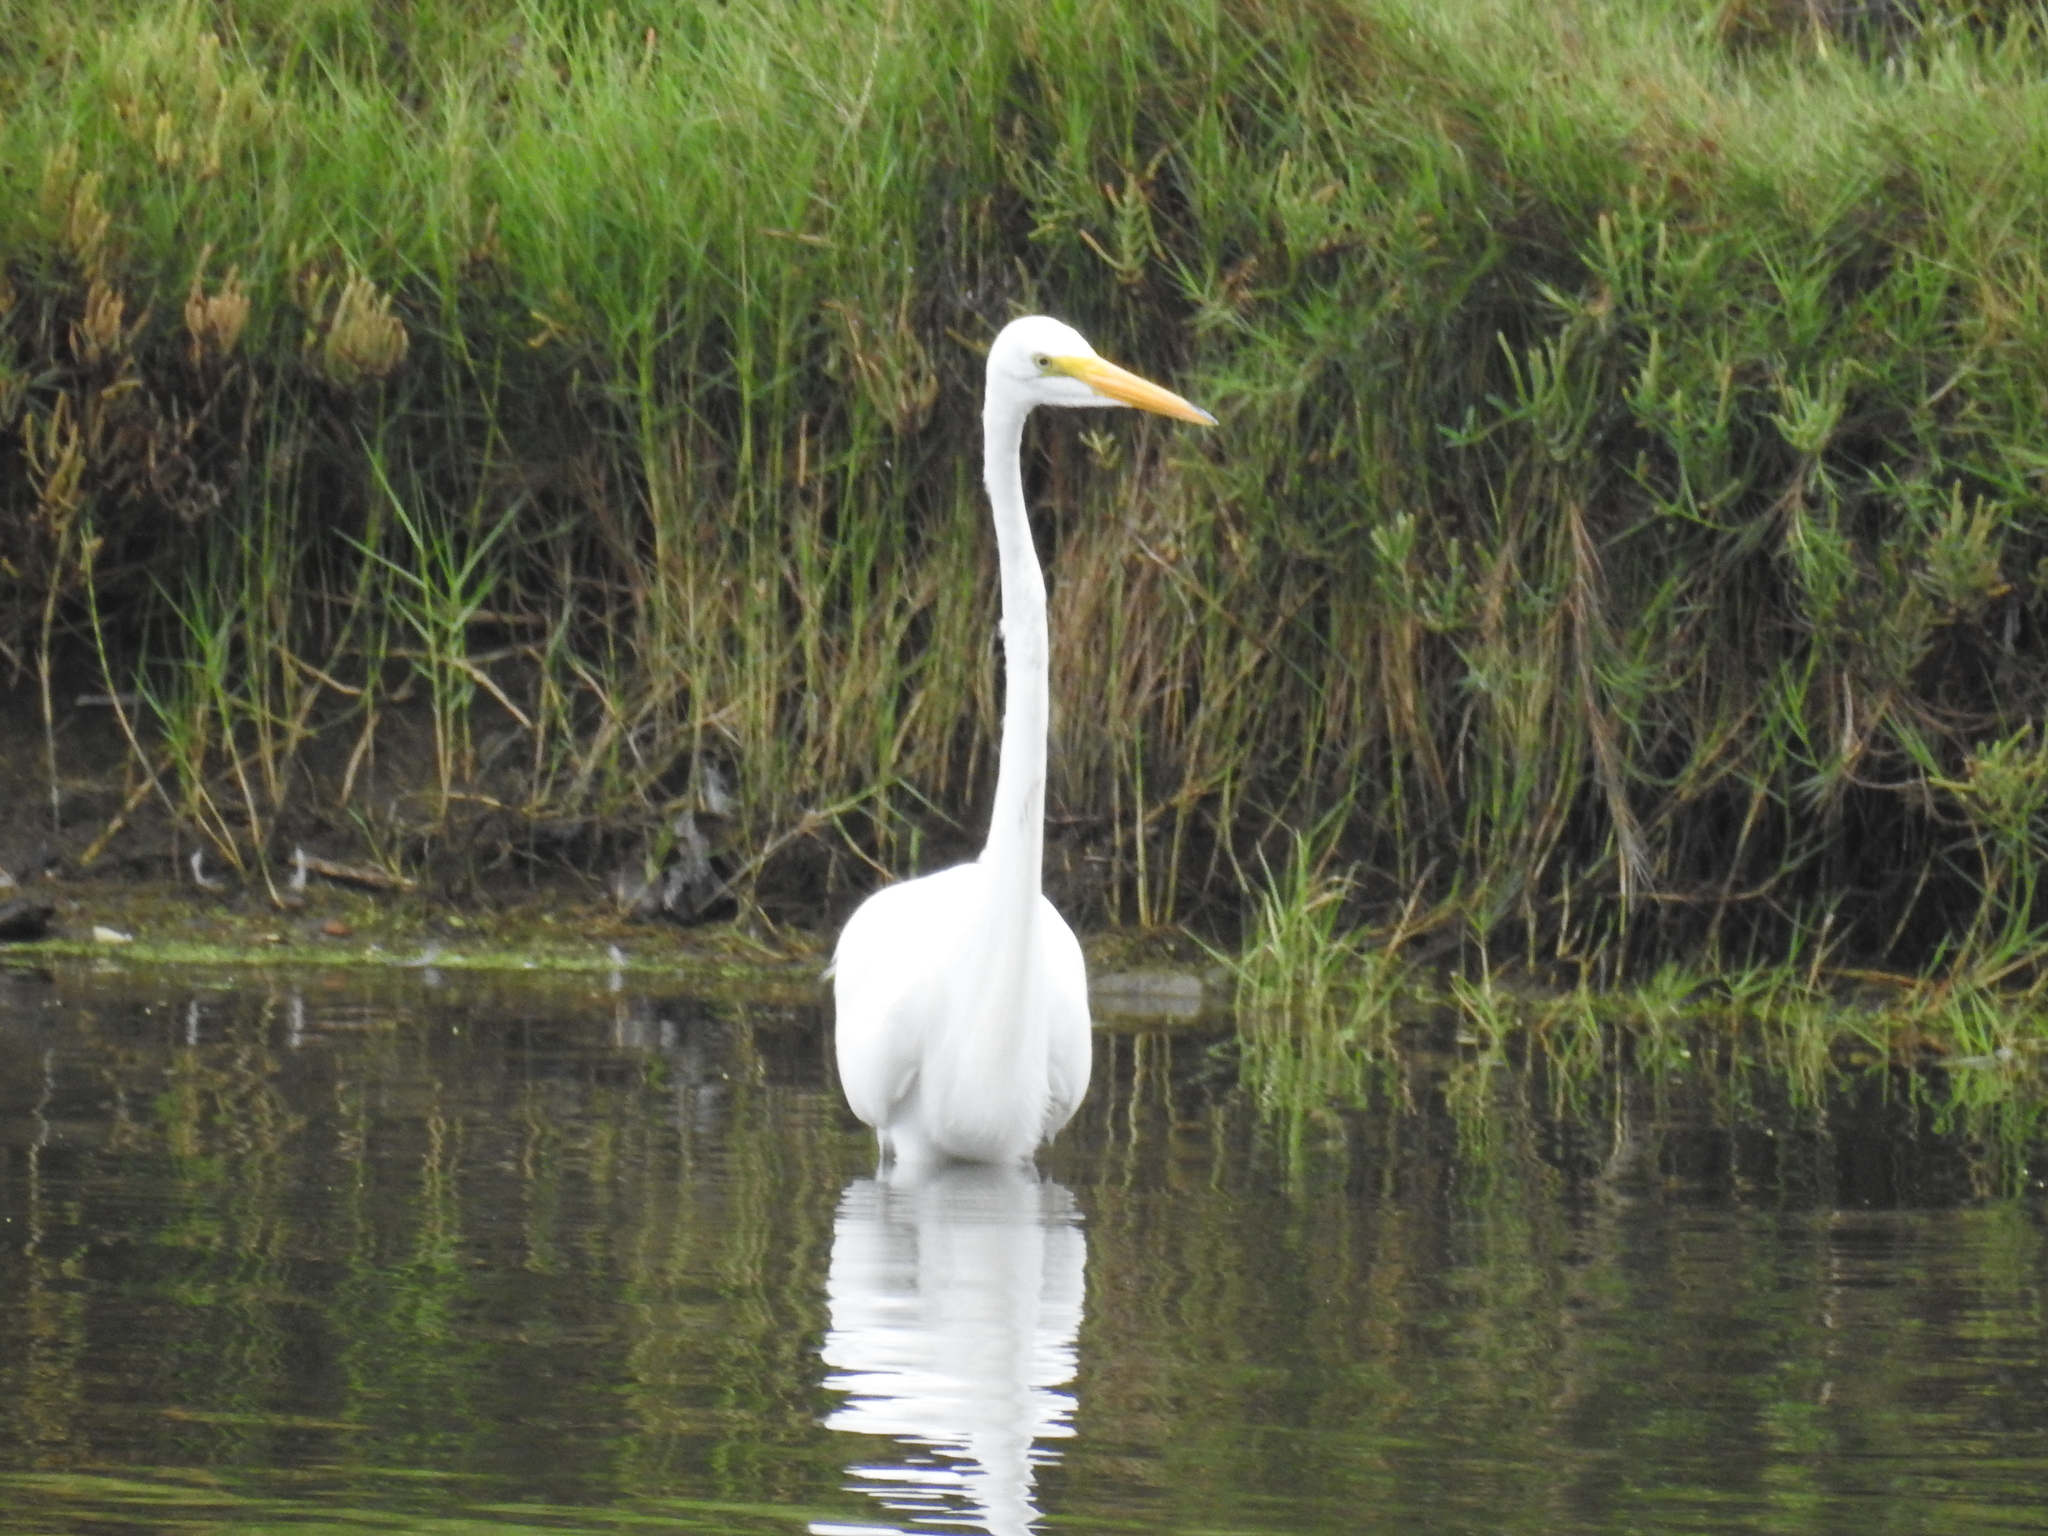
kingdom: Animalia
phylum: Chordata
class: Aves
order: Pelecaniformes
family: Ardeidae
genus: Ardea
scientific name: Ardea alba
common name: Great egret
